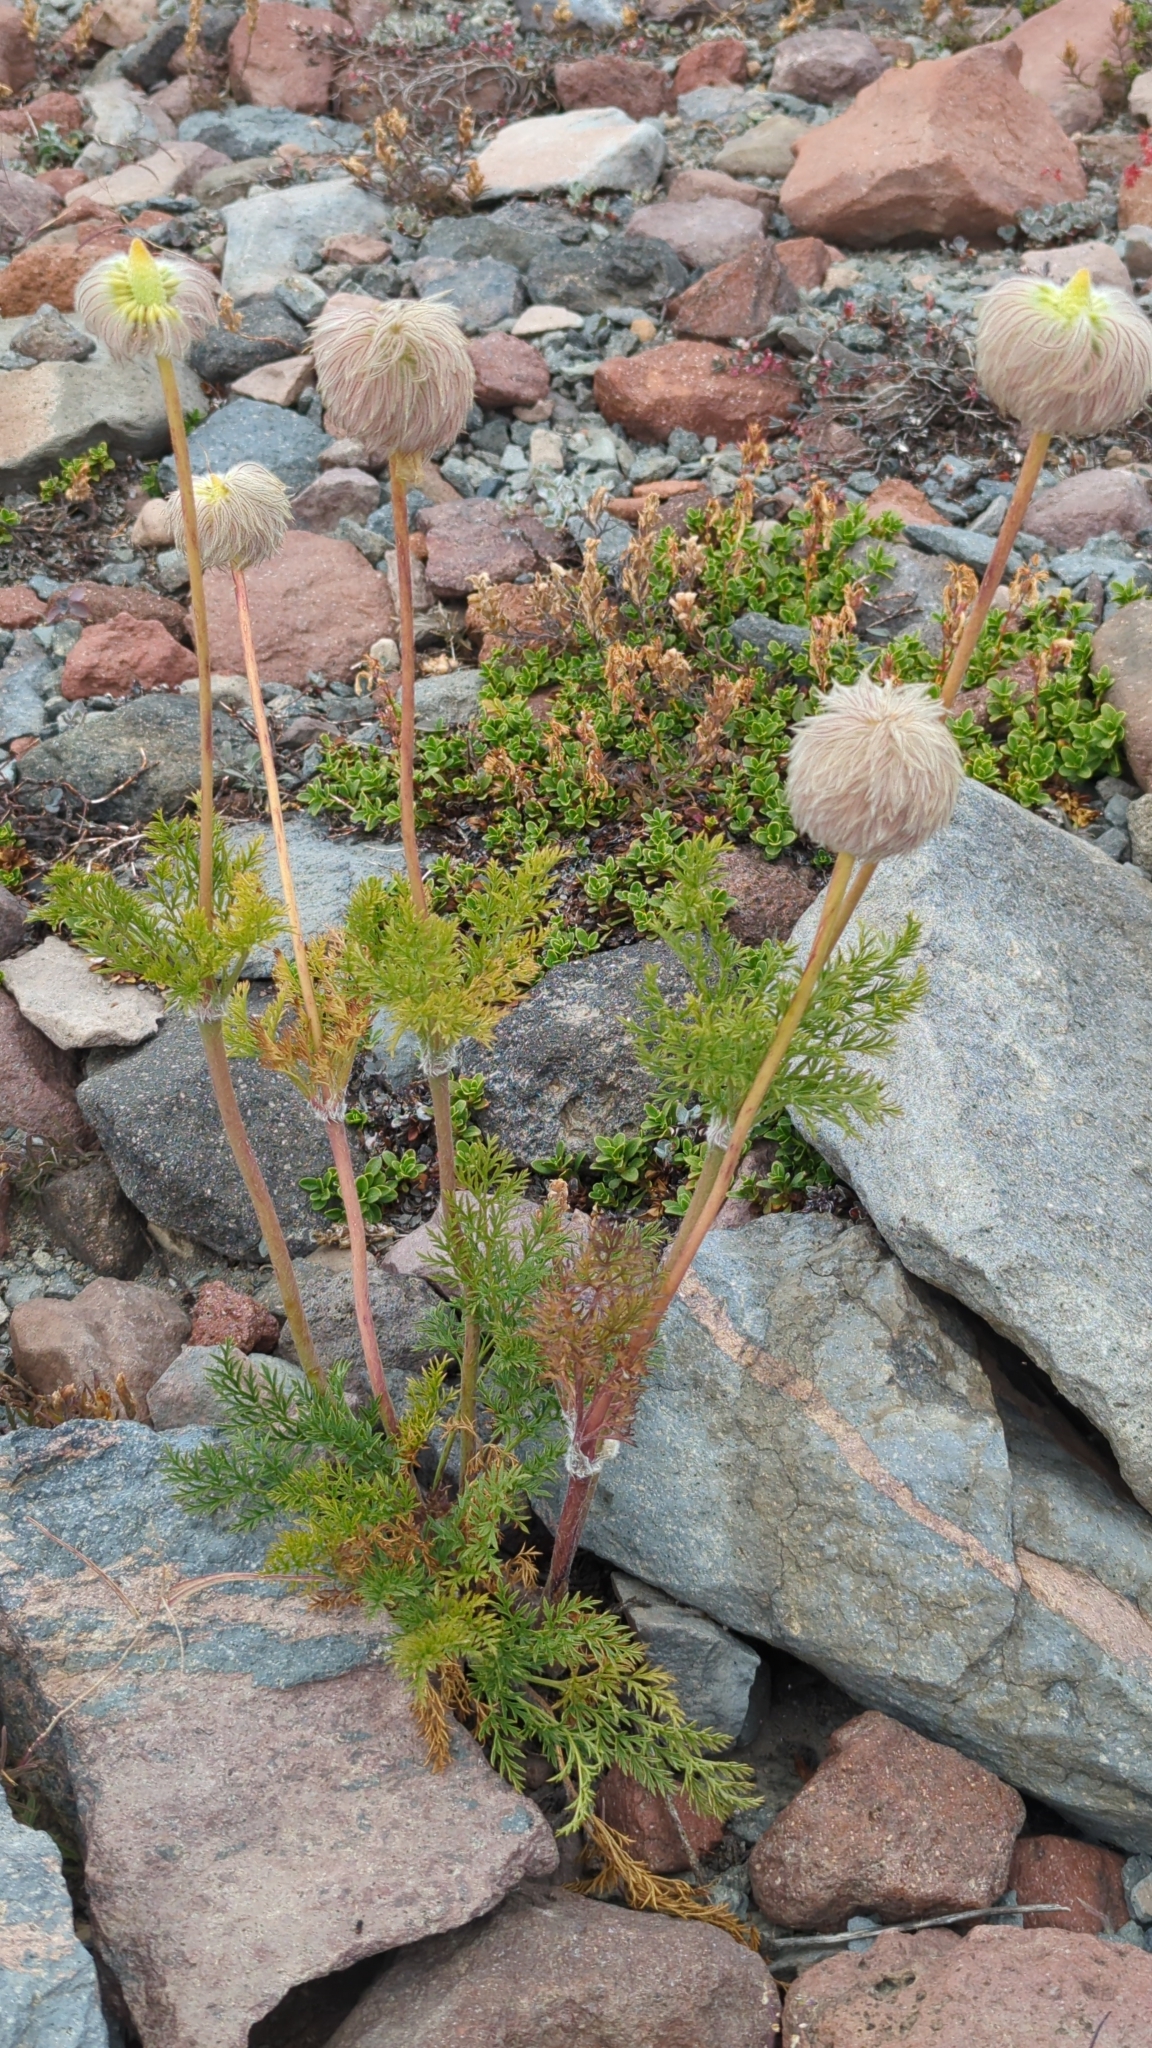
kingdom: Plantae
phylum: Tracheophyta
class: Magnoliopsida
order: Ranunculales
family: Ranunculaceae
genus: Pulsatilla
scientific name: Pulsatilla occidentalis
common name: Mountain pasqueflower
